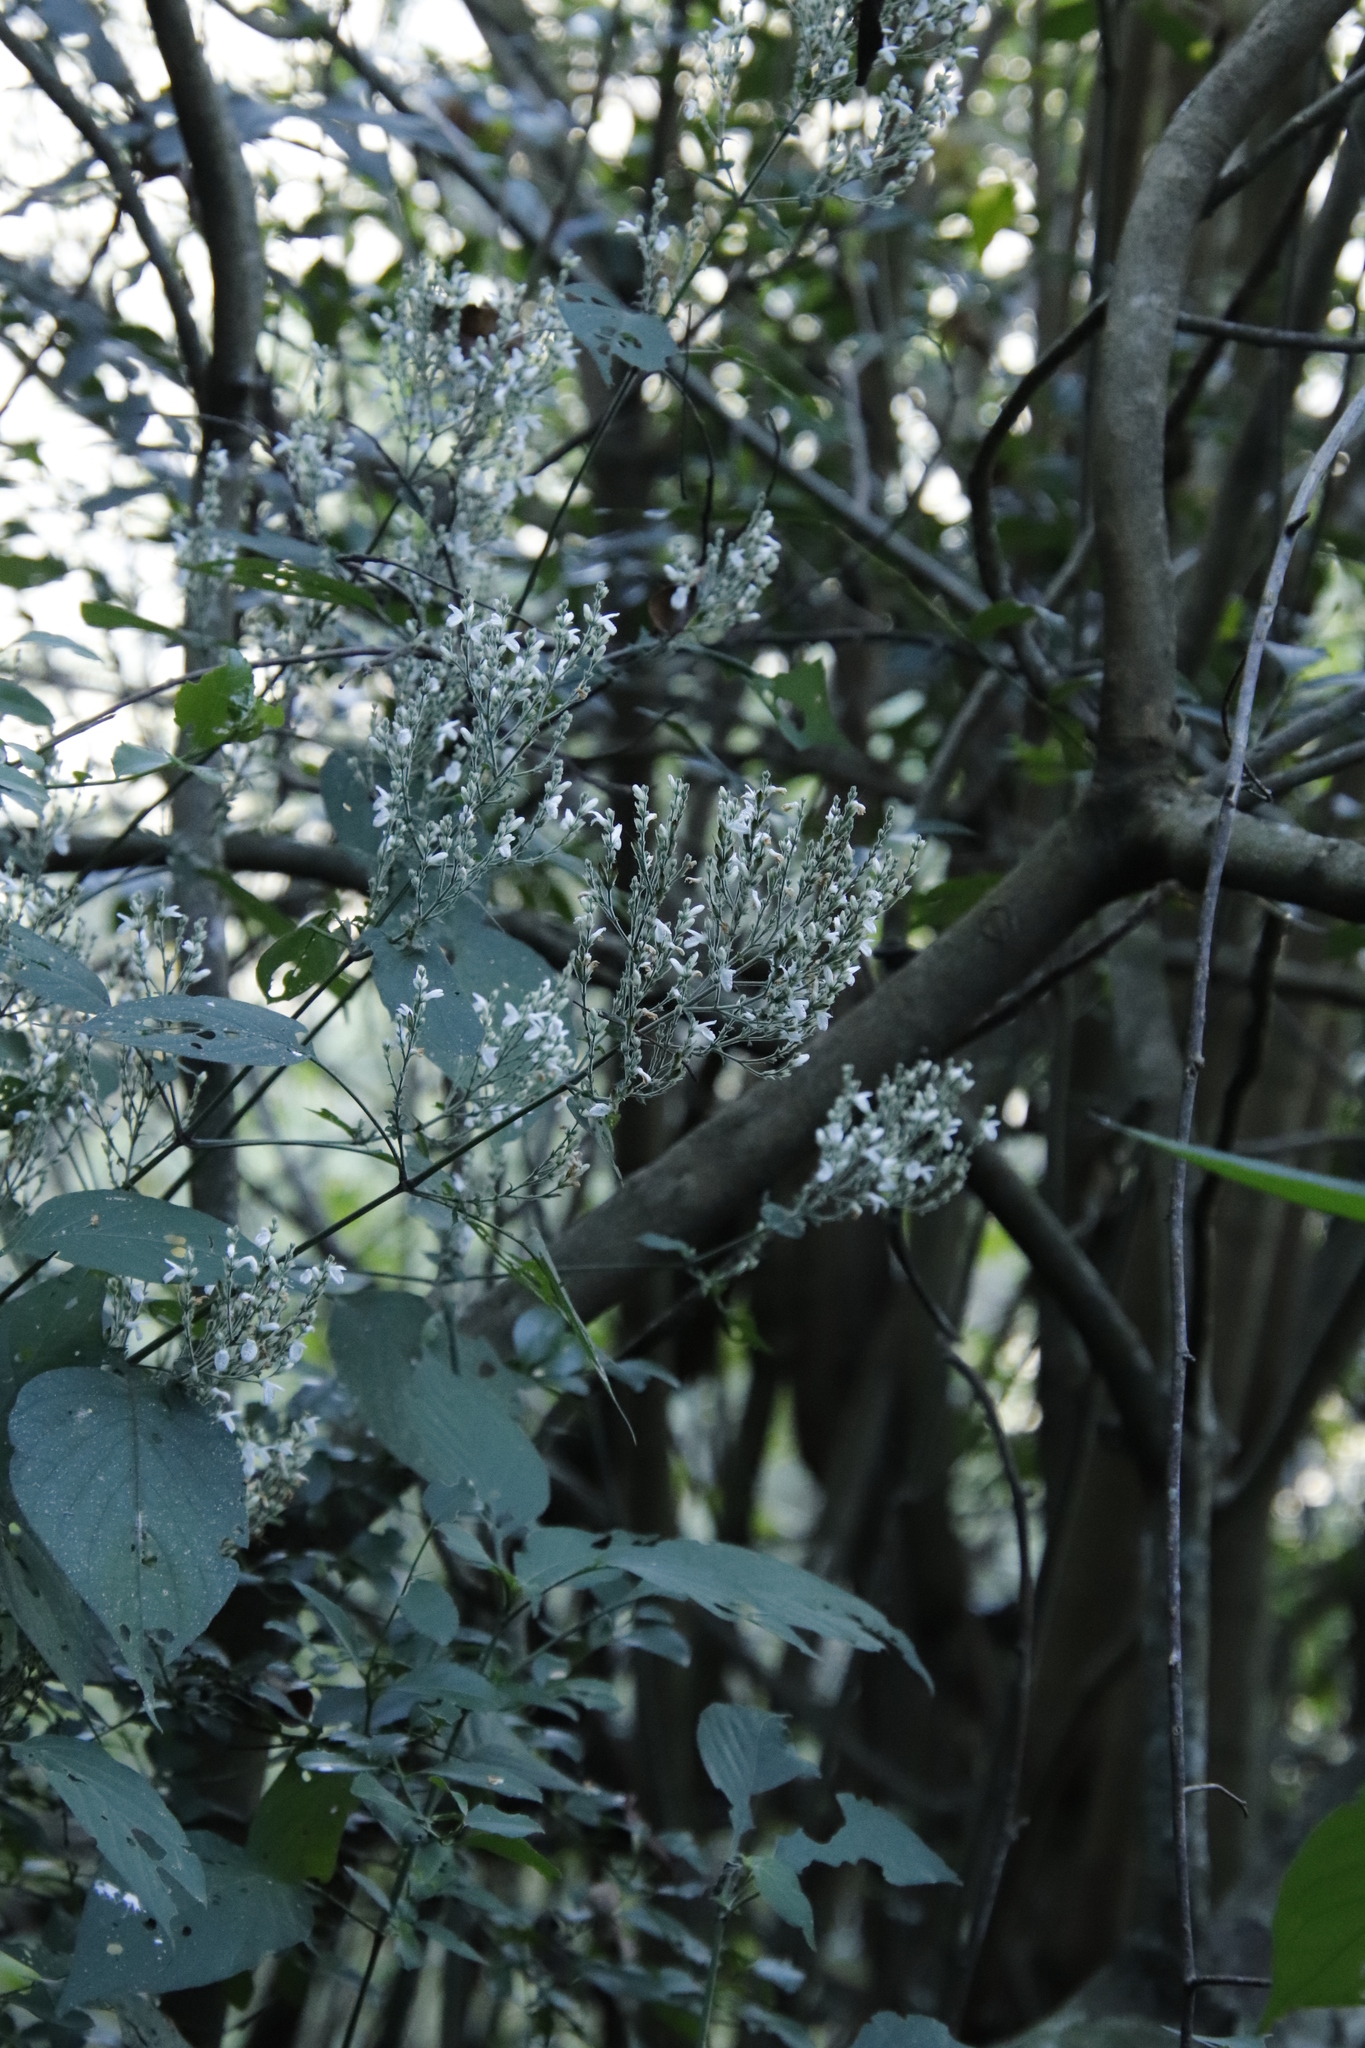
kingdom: Plantae
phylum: Tracheophyta
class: Magnoliopsida
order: Lamiales
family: Acanthaceae
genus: Isoglossa
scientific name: Isoglossa woodii
